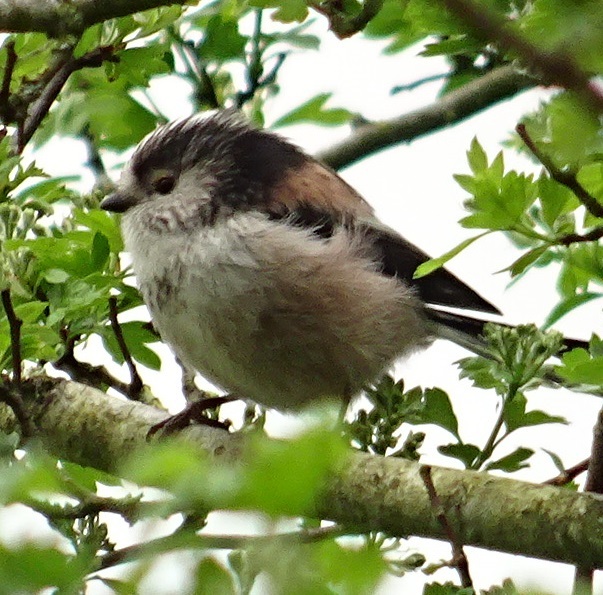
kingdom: Animalia
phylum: Chordata
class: Aves
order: Passeriformes
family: Aegithalidae
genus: Aegithalos
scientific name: Aegithalos caudatus
